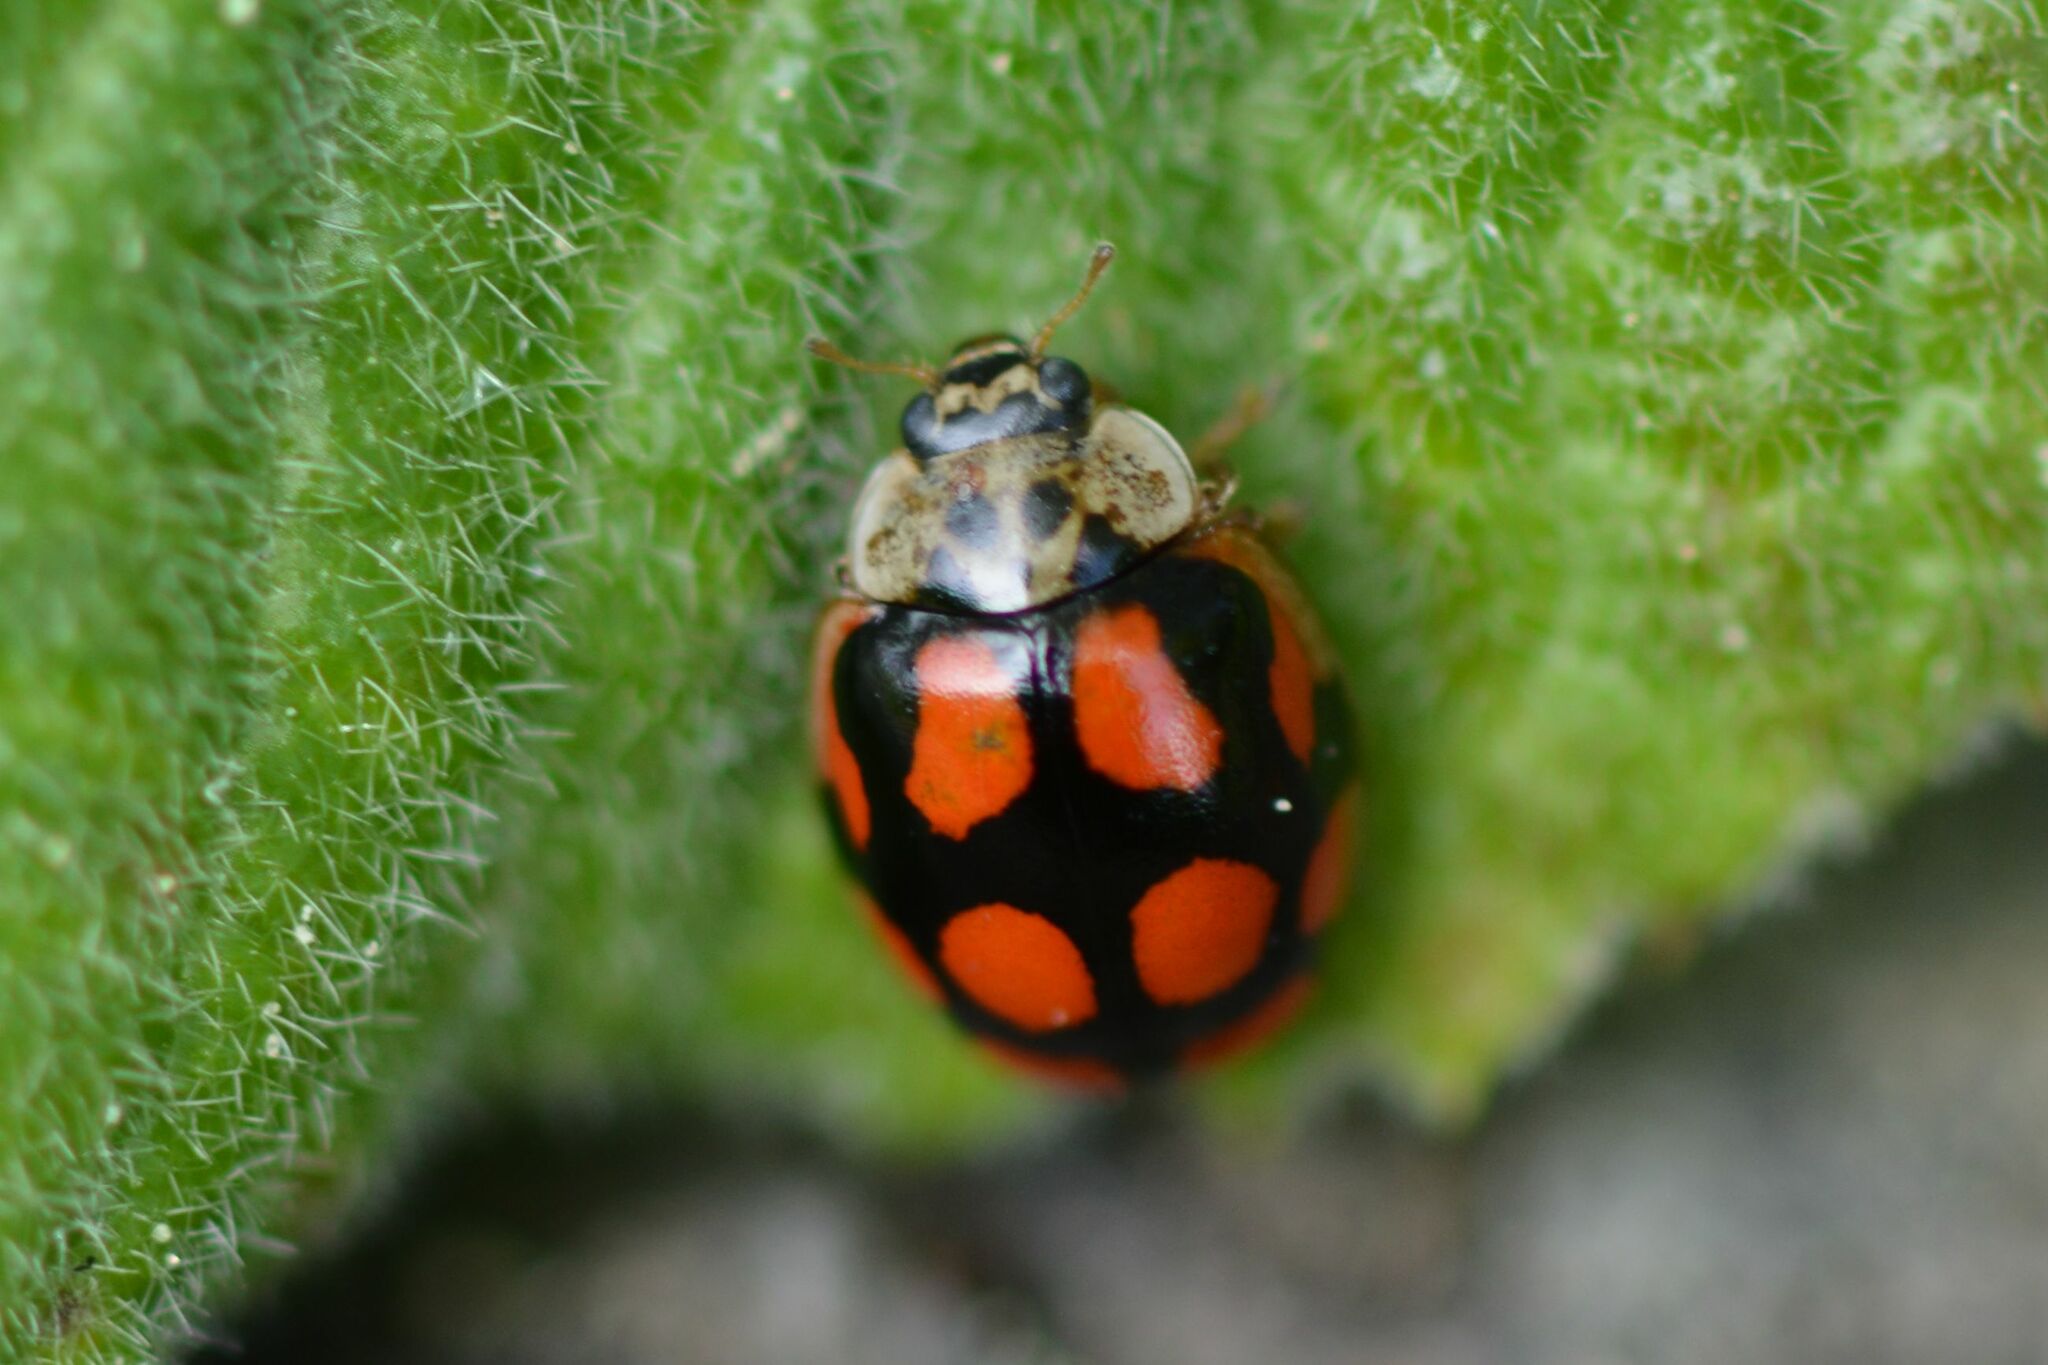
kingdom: Animalia
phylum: Arthropoda
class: Insecta
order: Coleoptera
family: Coccinellidae
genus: Adalia
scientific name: Adalia decempunctata
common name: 10-spot ladybird
